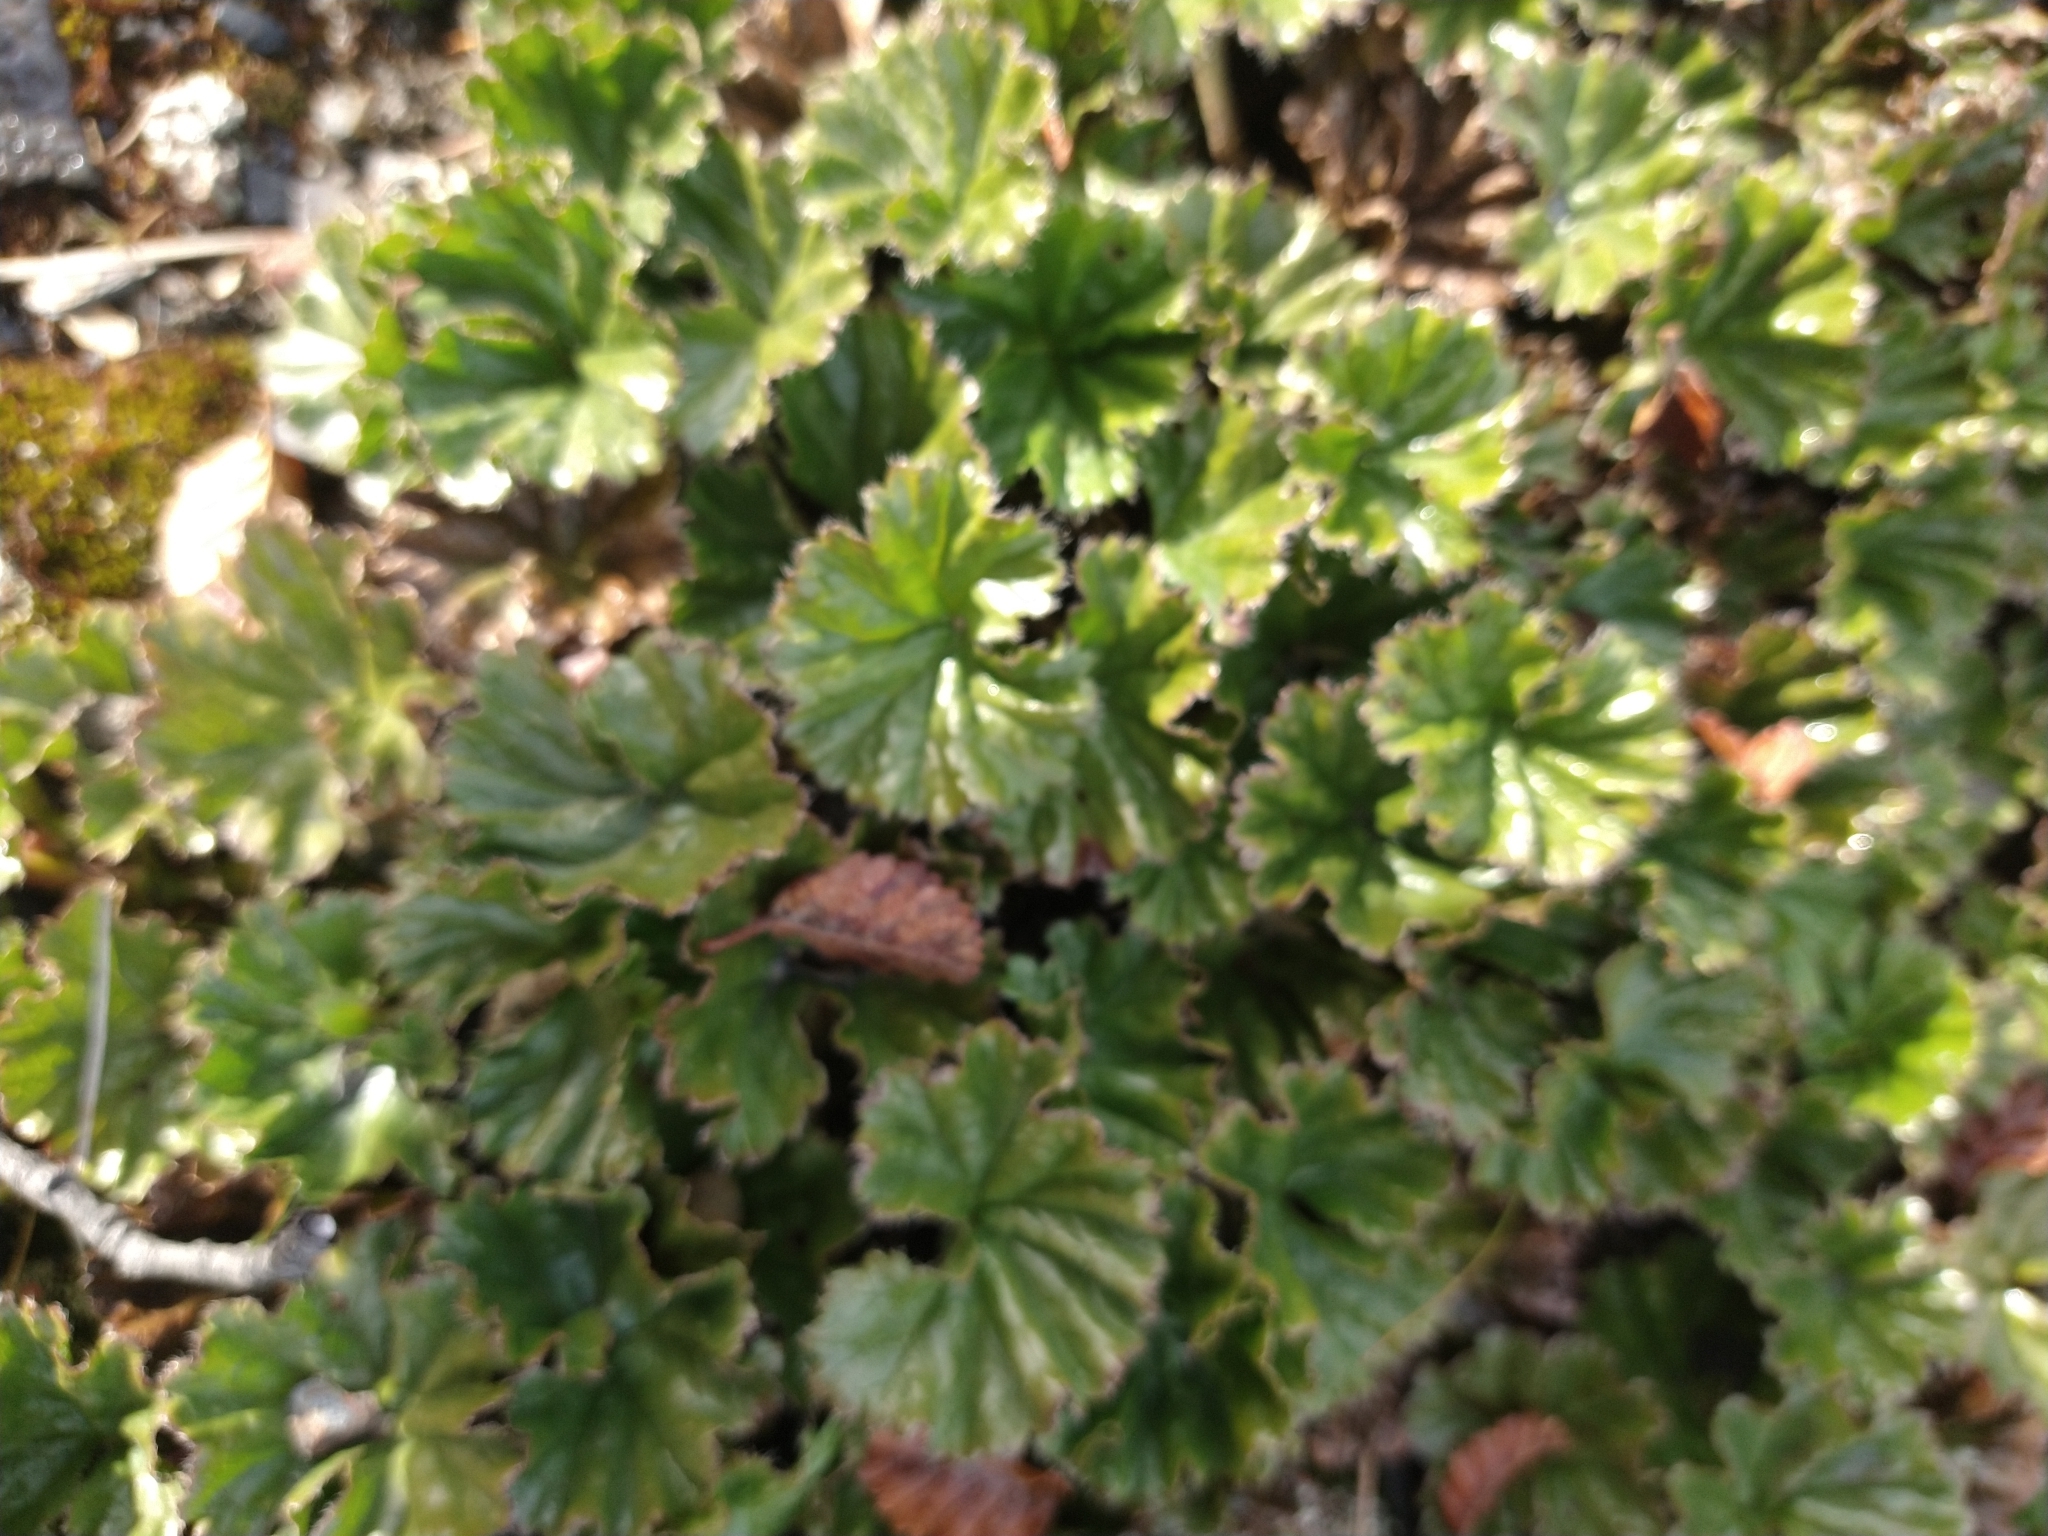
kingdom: Plantae
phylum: Tracheophyta
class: Magnoliopsida
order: Gunnerales
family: Gunneraceae
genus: Gunnera
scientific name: Gunnera magellanica
